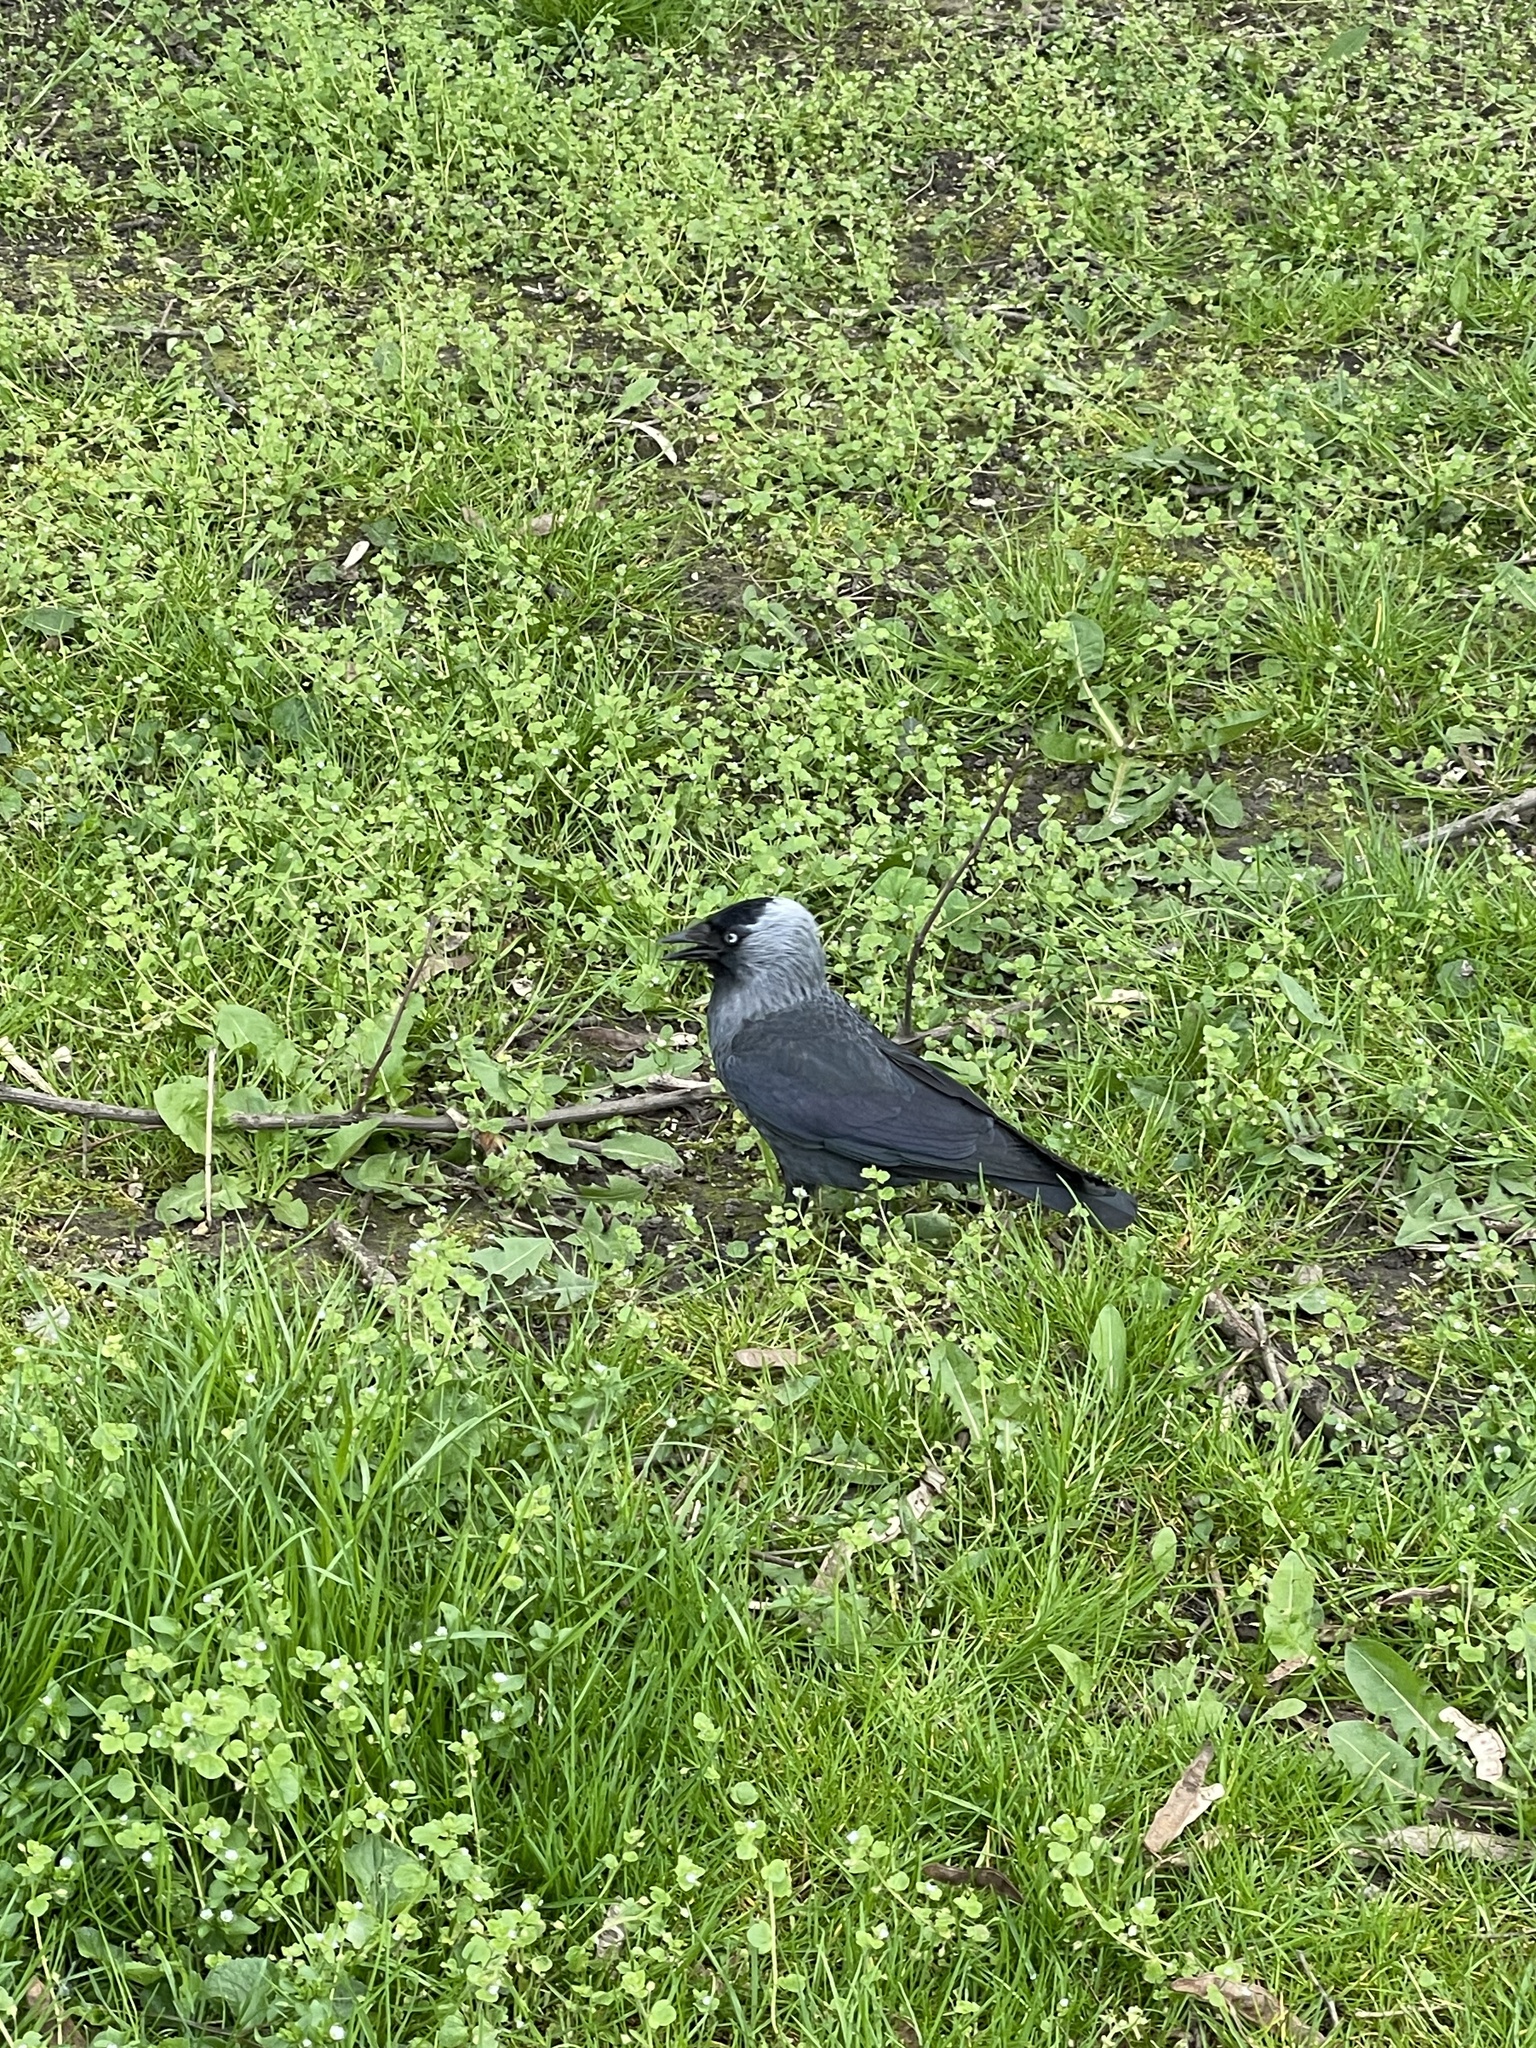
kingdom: Animalia
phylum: Chordata
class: Aves
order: Passeriformes
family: Corvidae
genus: Coloeus
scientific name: Coloeus monedula
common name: Western jackdaw
